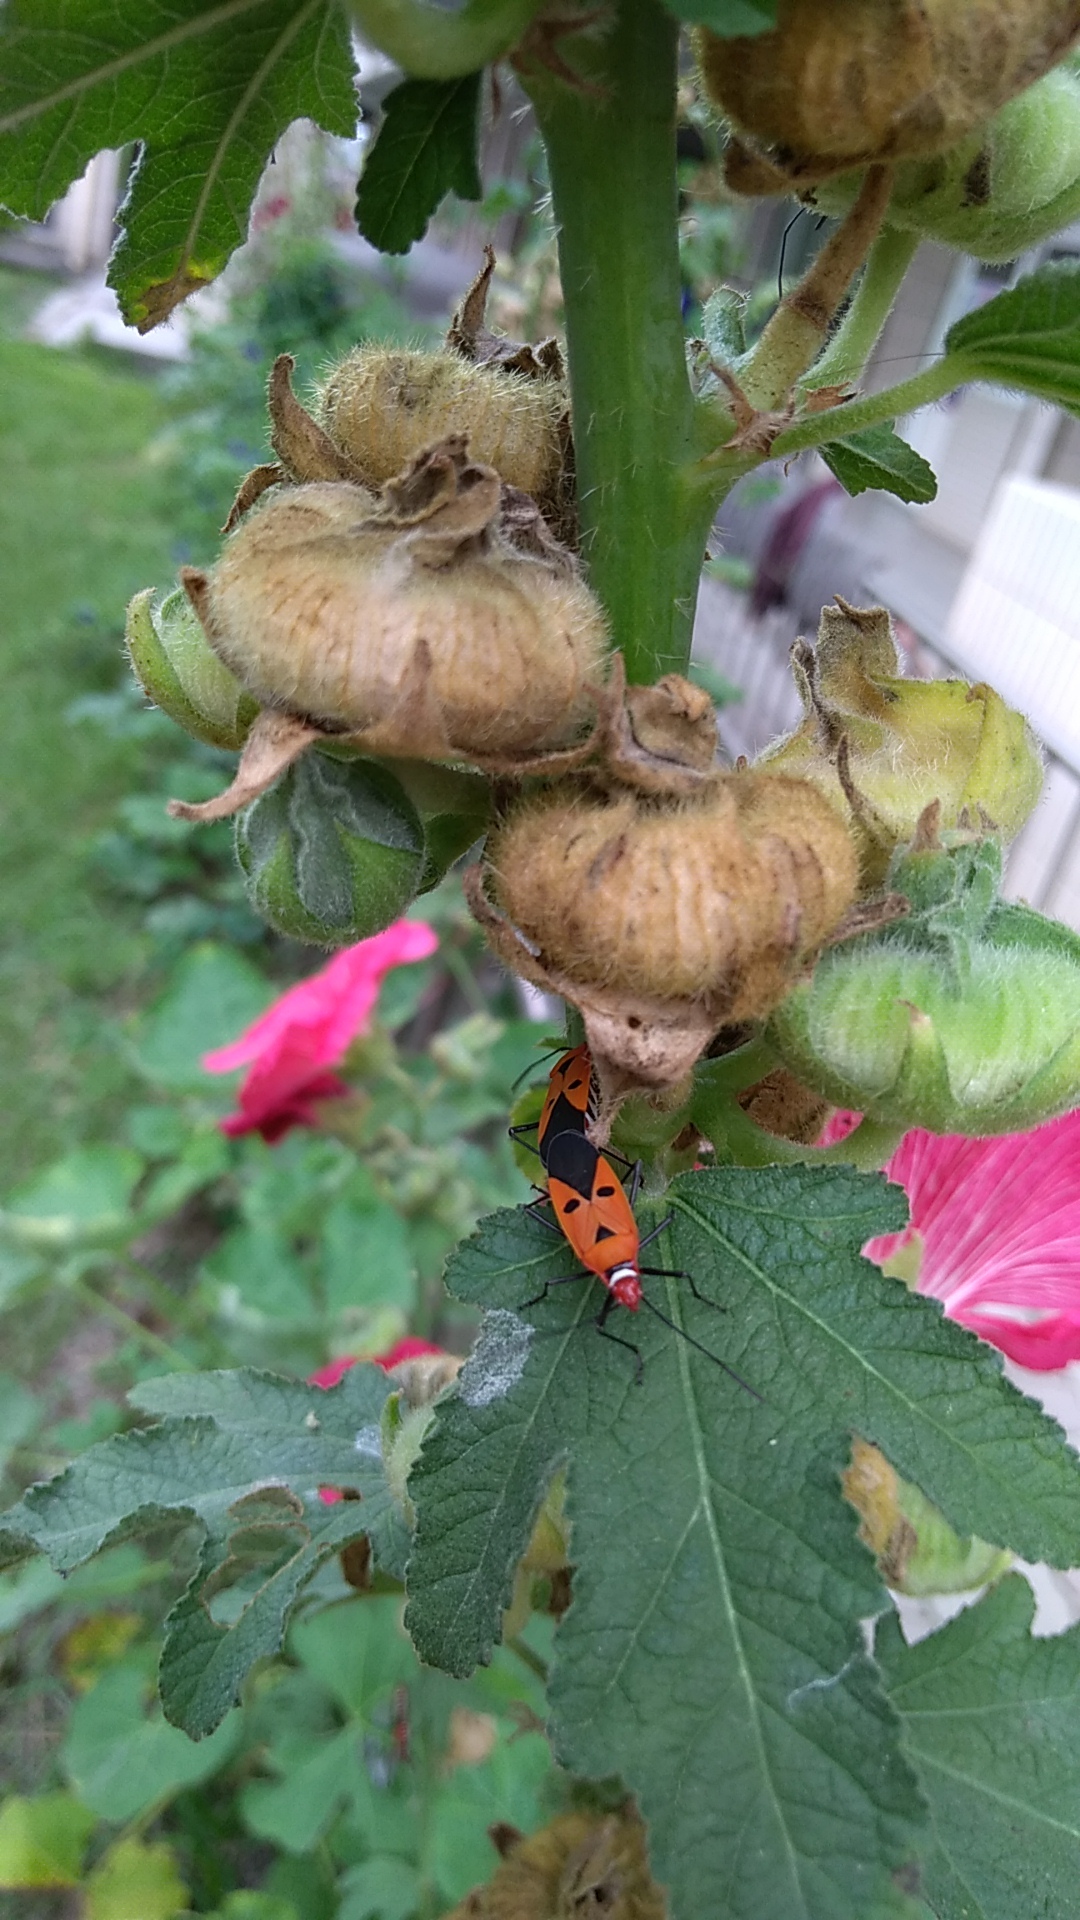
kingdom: Animalia
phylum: Arthropoda
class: Insecta
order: Hemiptera
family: Pyrrhocoridae
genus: Dysdercus
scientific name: Dysdercus cingulatus
